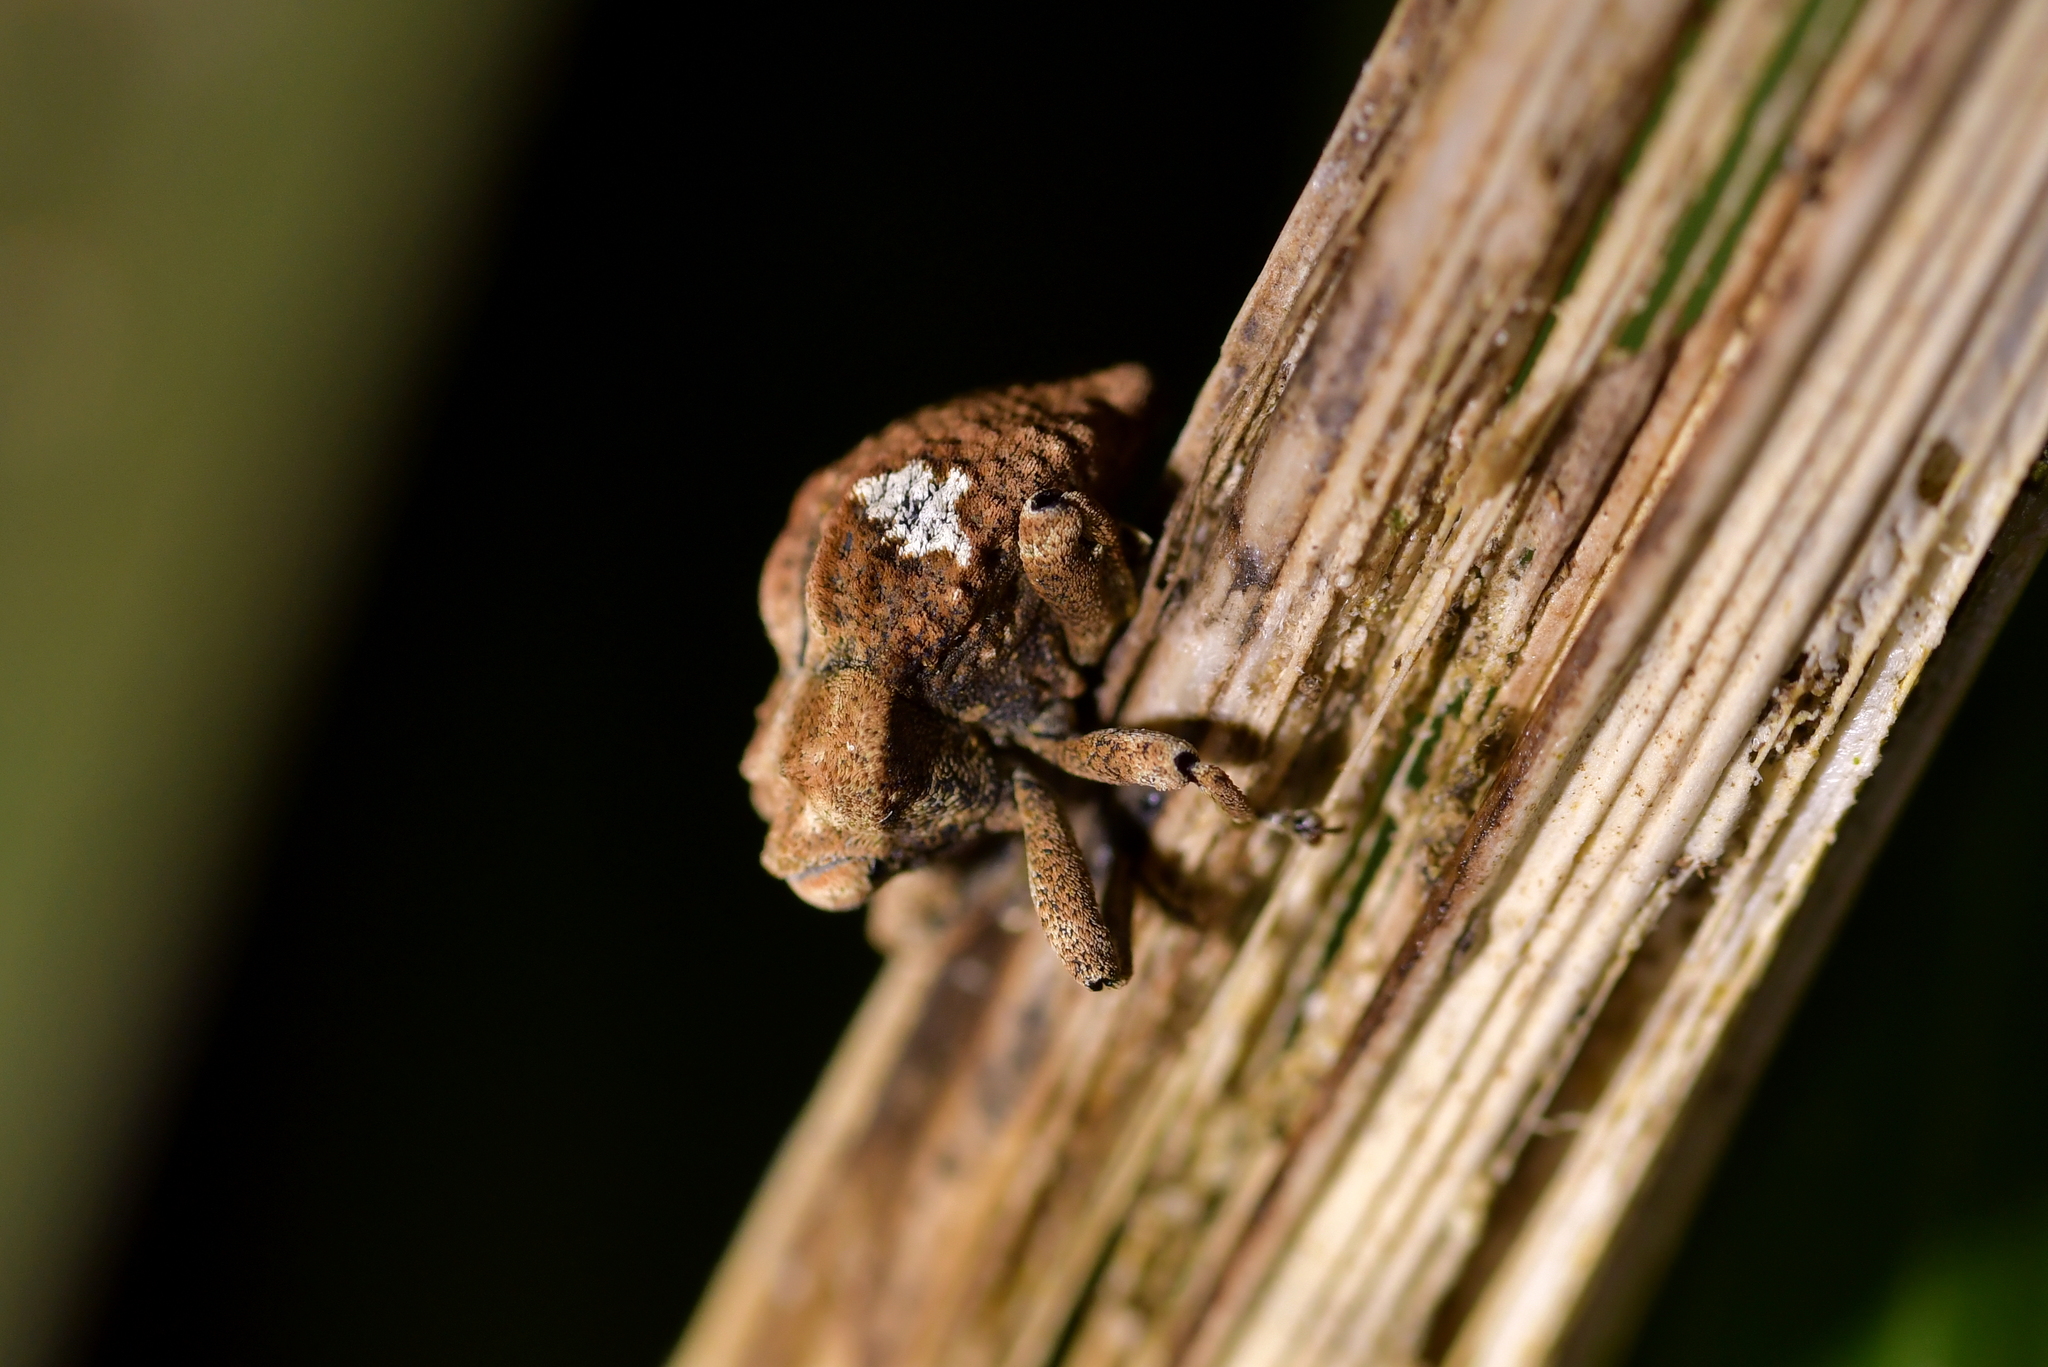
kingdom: Animalia
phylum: Arthropoda
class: Insecta
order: Coleoptera
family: Curculionidae
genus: Sympedius
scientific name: Sympedius bufo
